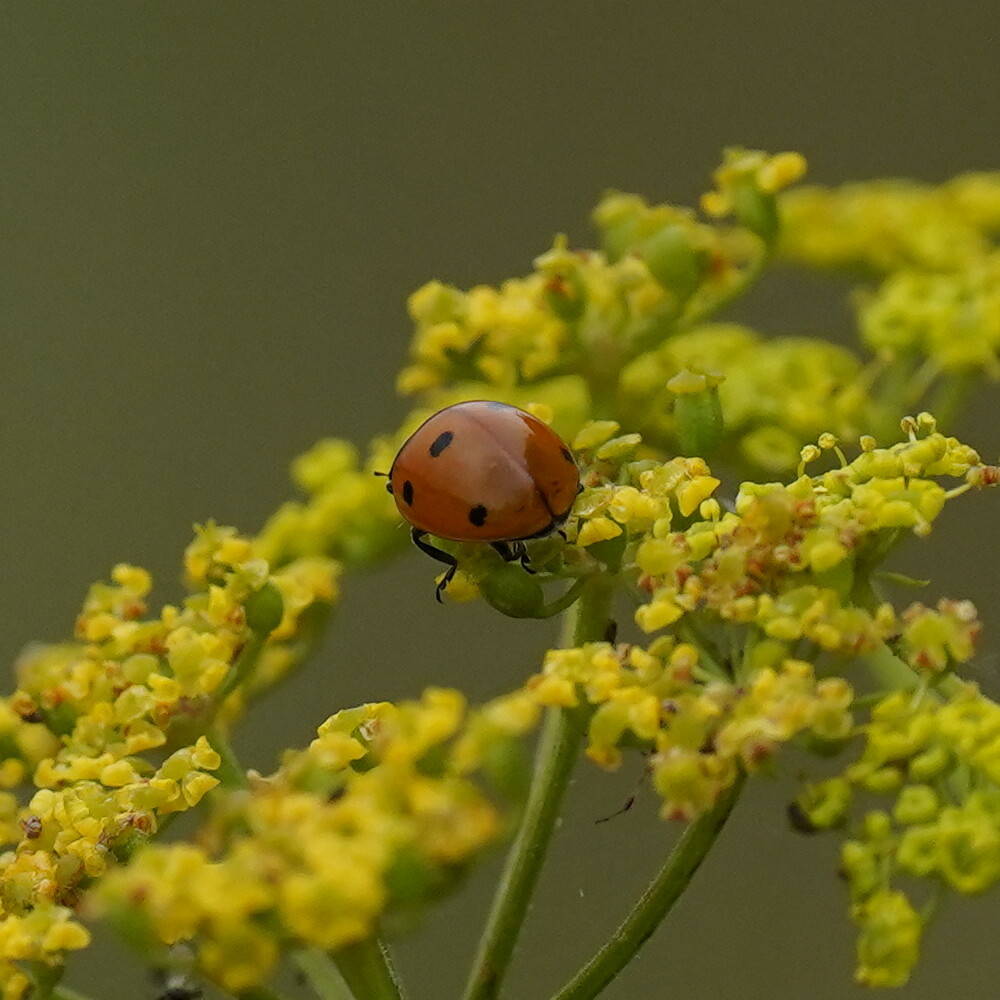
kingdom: Animalia
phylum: Arthropoda
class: Insecta
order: Coleoptera
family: Coccinellidae
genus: Coccinella
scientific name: Coccinella septempunctata
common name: Sevenspotted lady beetle
